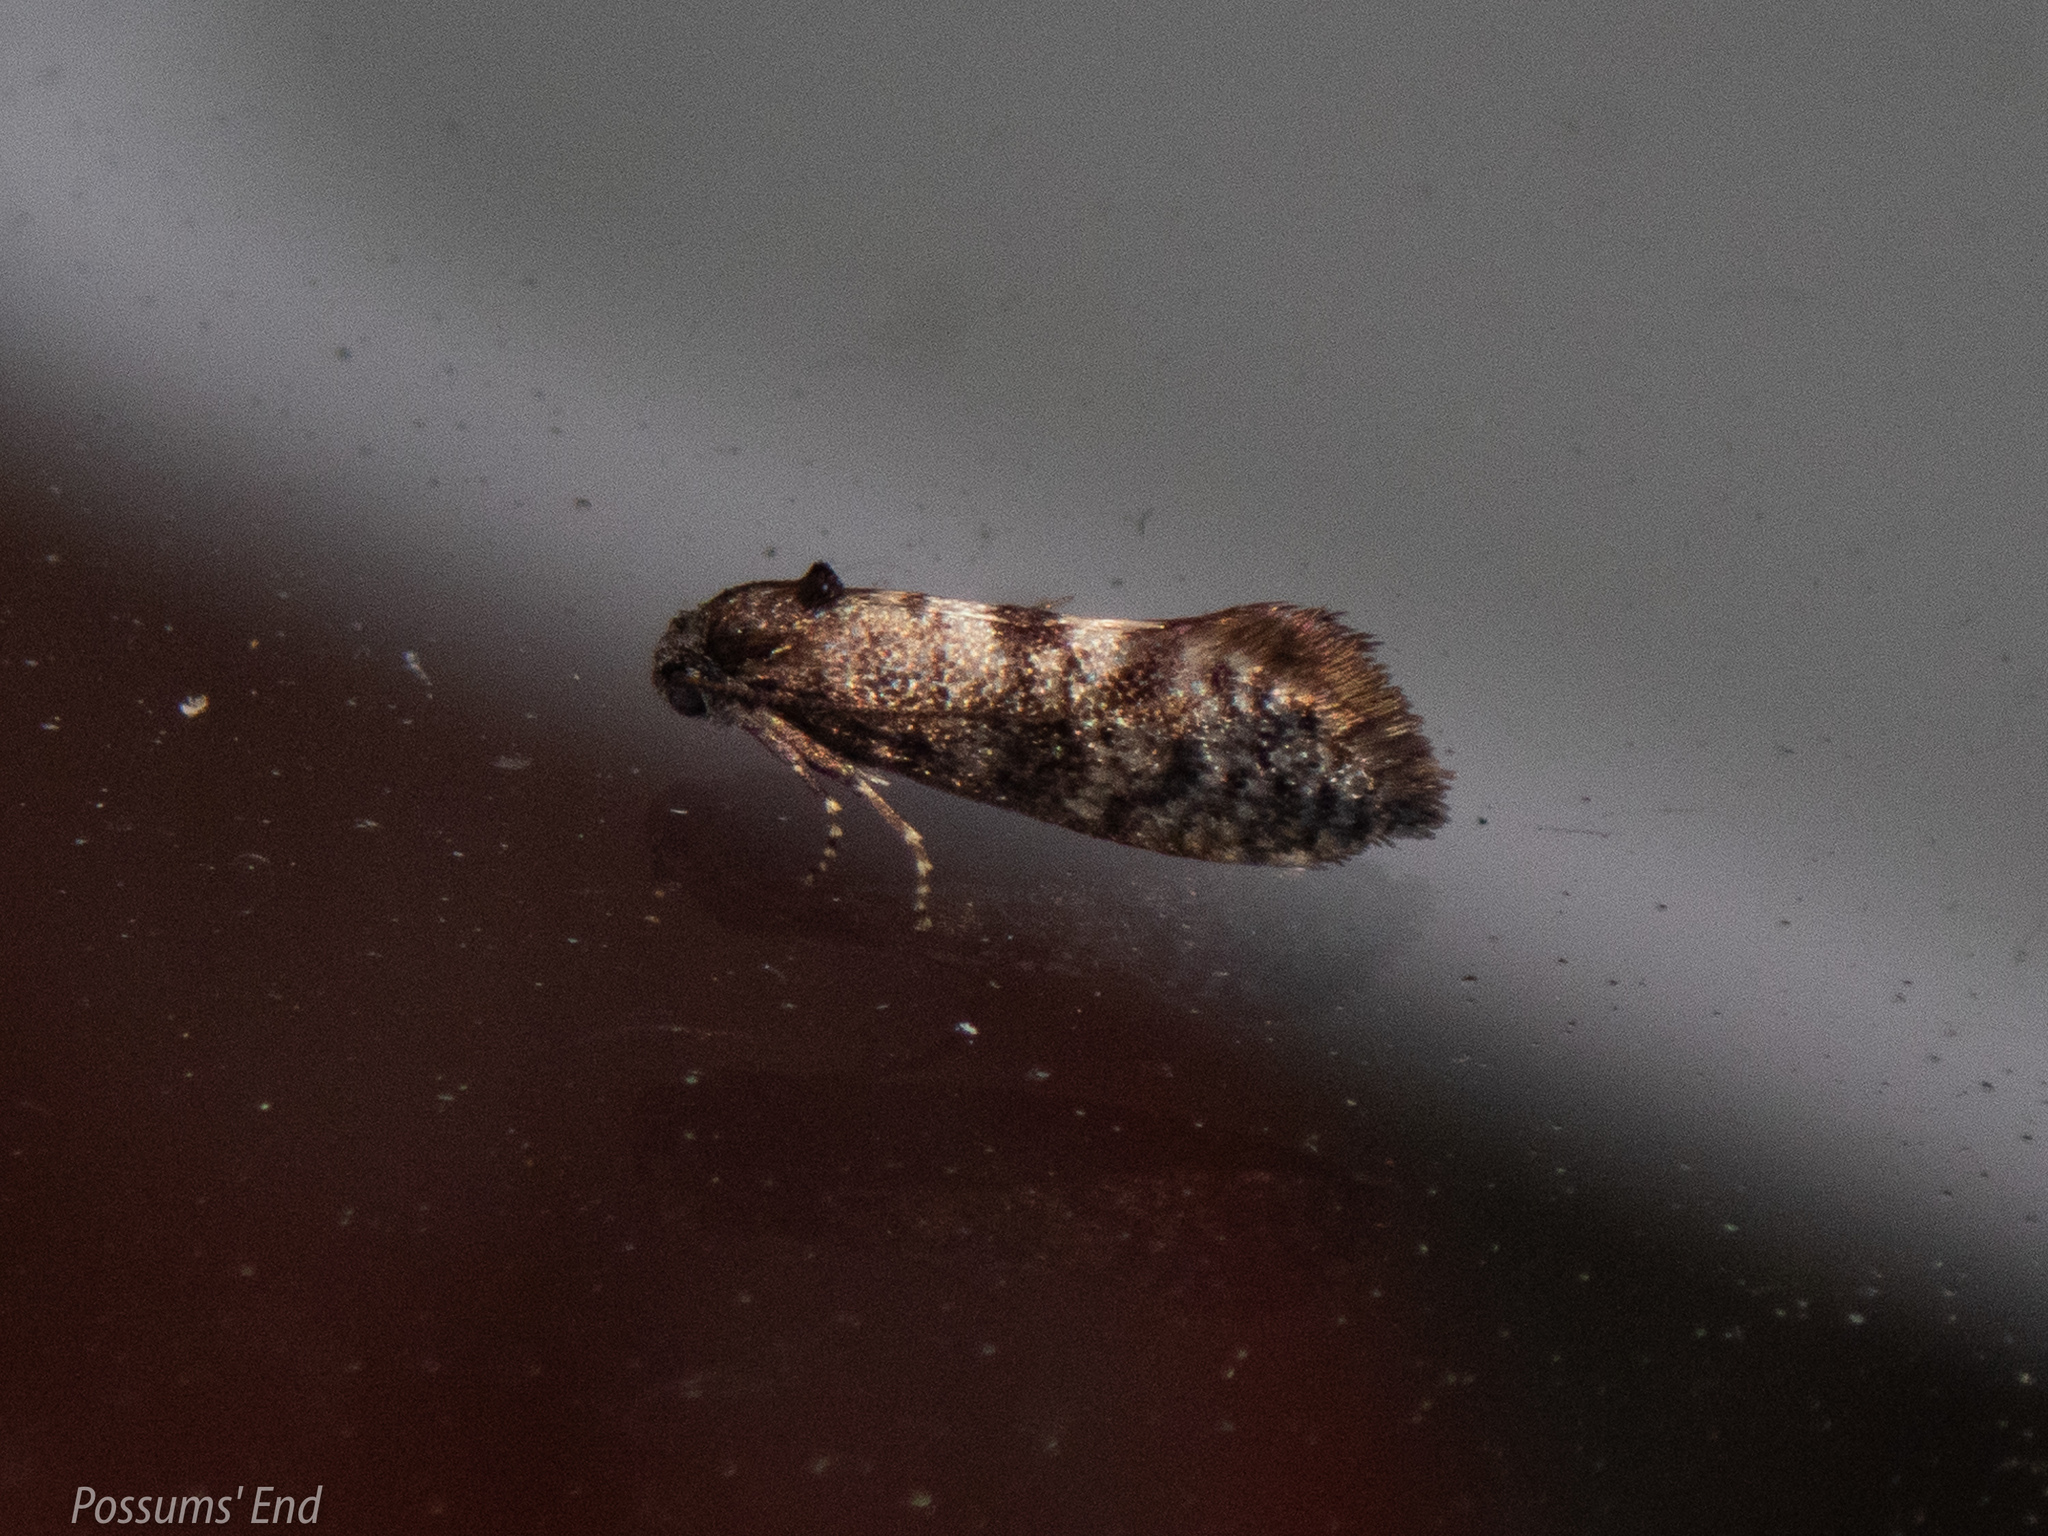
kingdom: Animalia
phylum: Arthropoda
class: Insecta
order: Lepidoptera
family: Psychidae
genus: Mallobathra
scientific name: Mallobathra perisseuta
